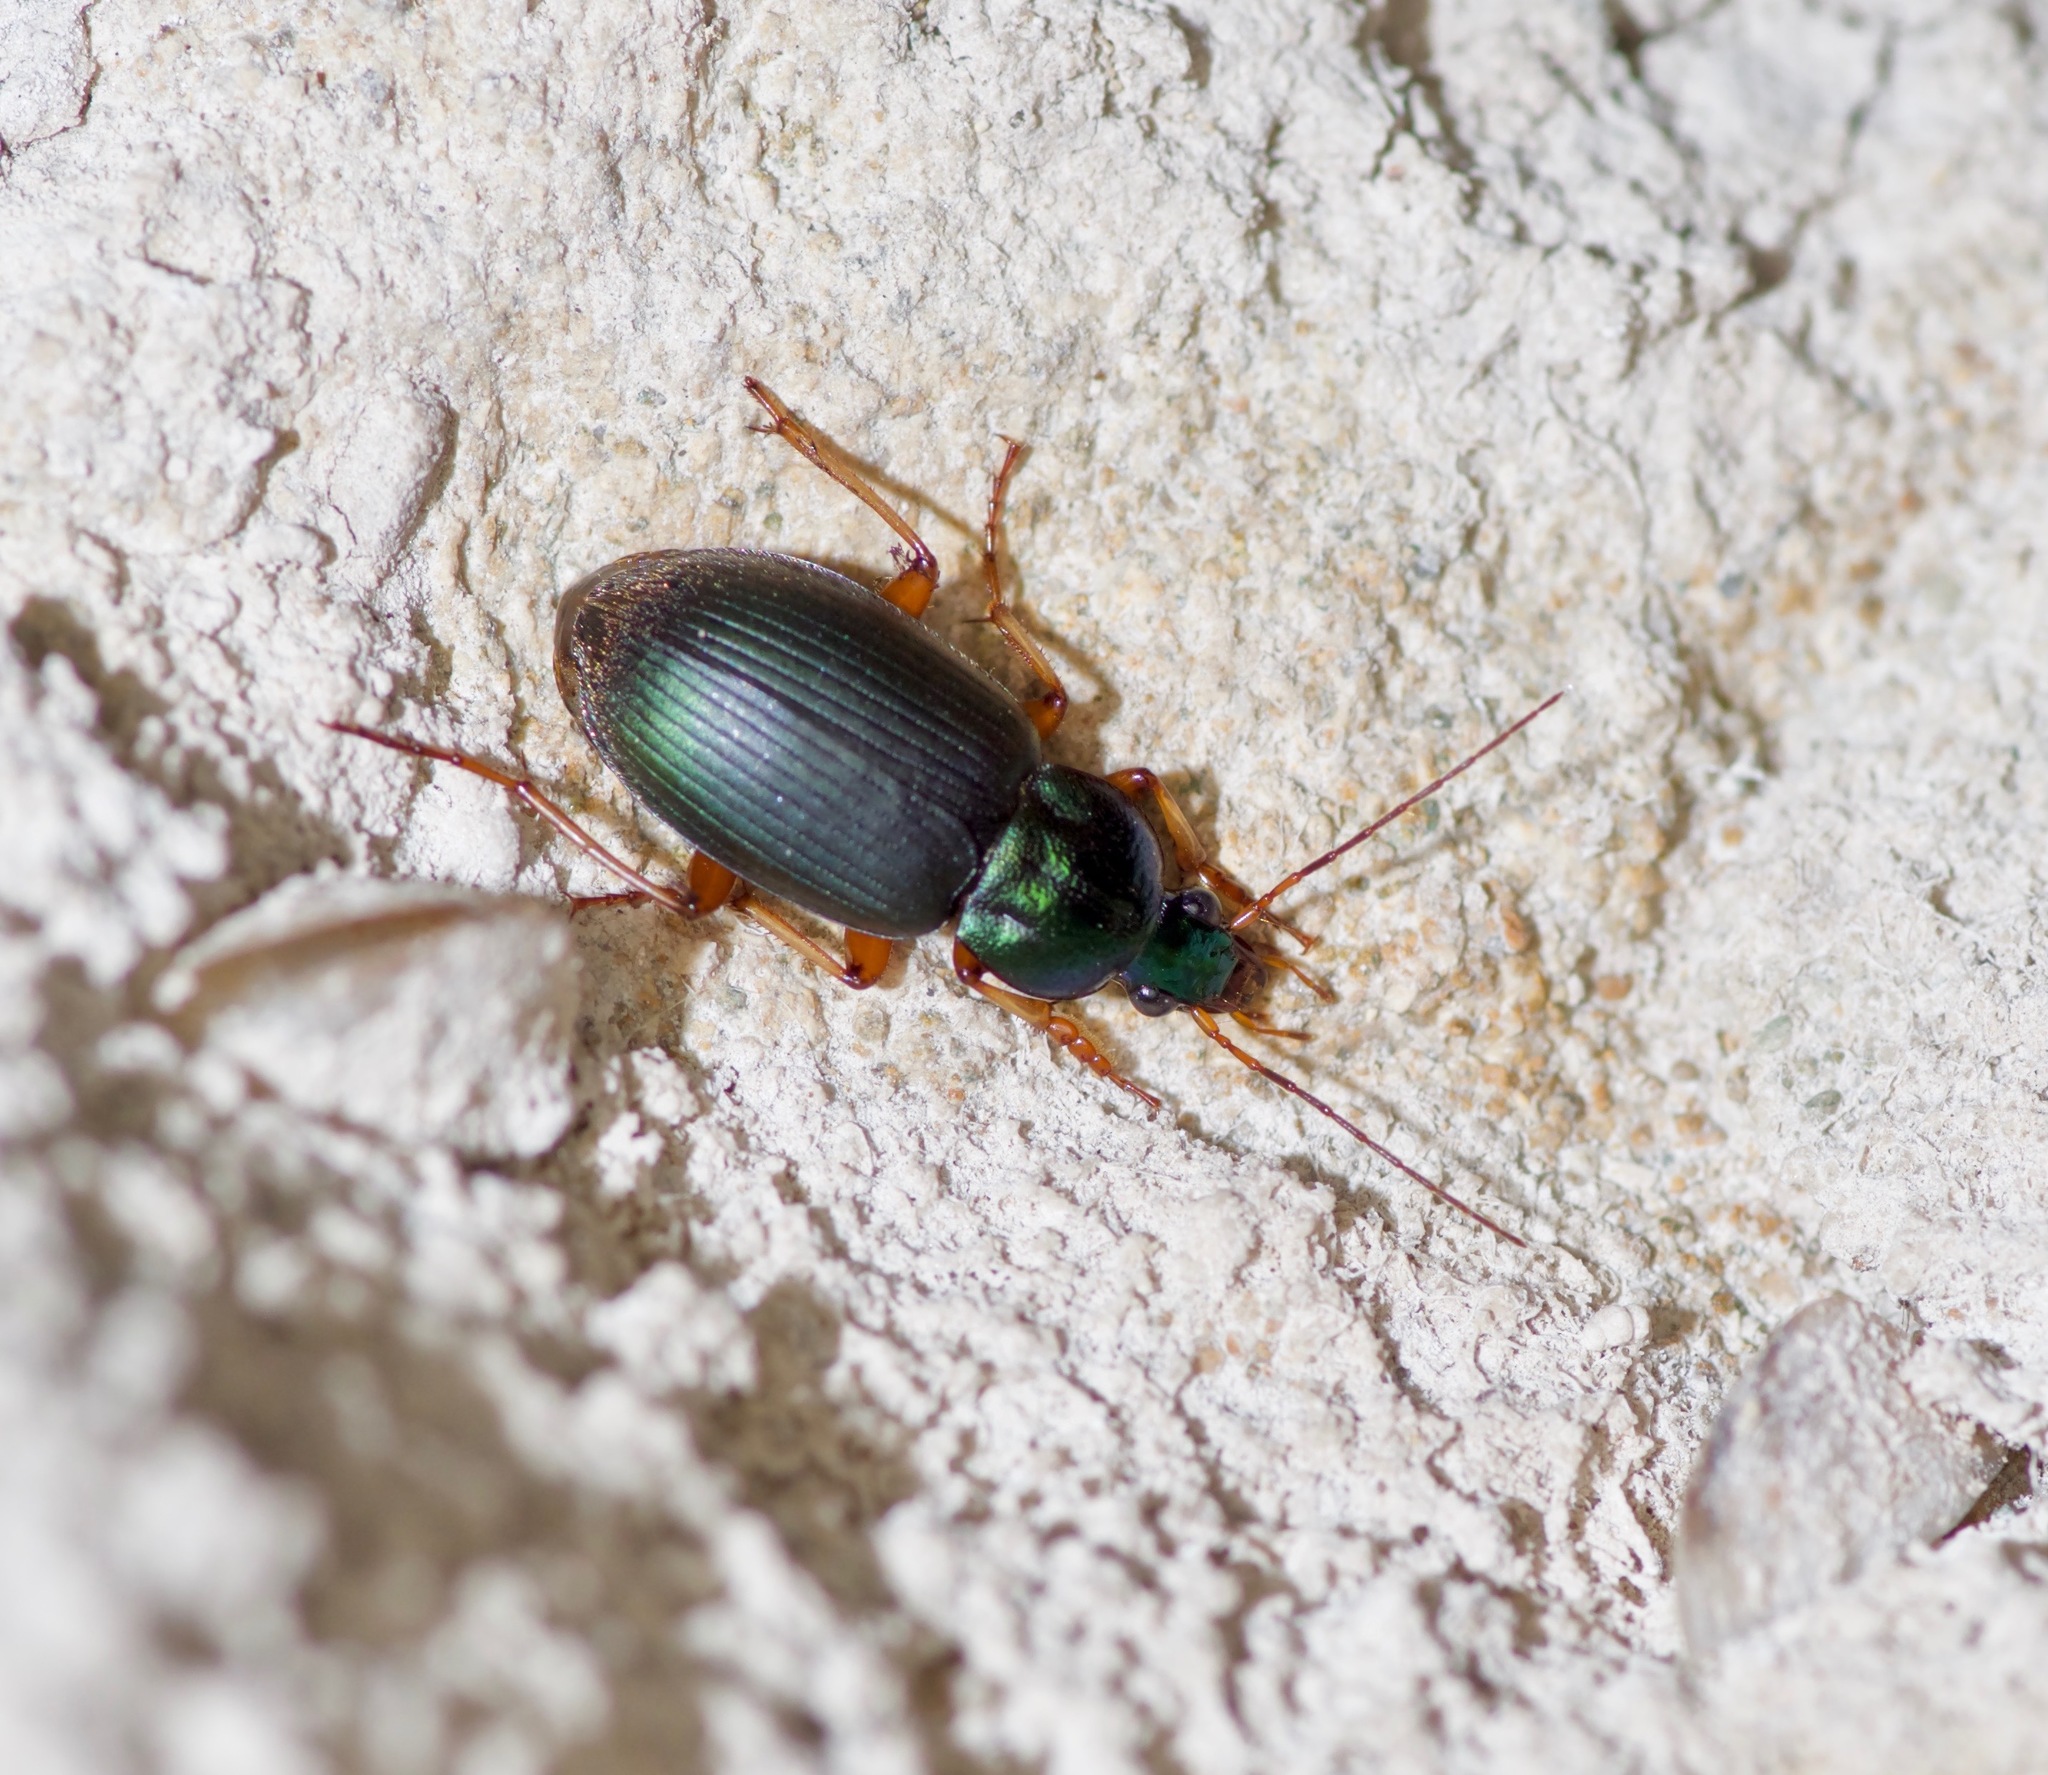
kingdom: Animalia
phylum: Arthropoda
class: Insecta
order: Coleoptera
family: Carabidae
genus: Chlaenius
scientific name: Chlaenius texanus
